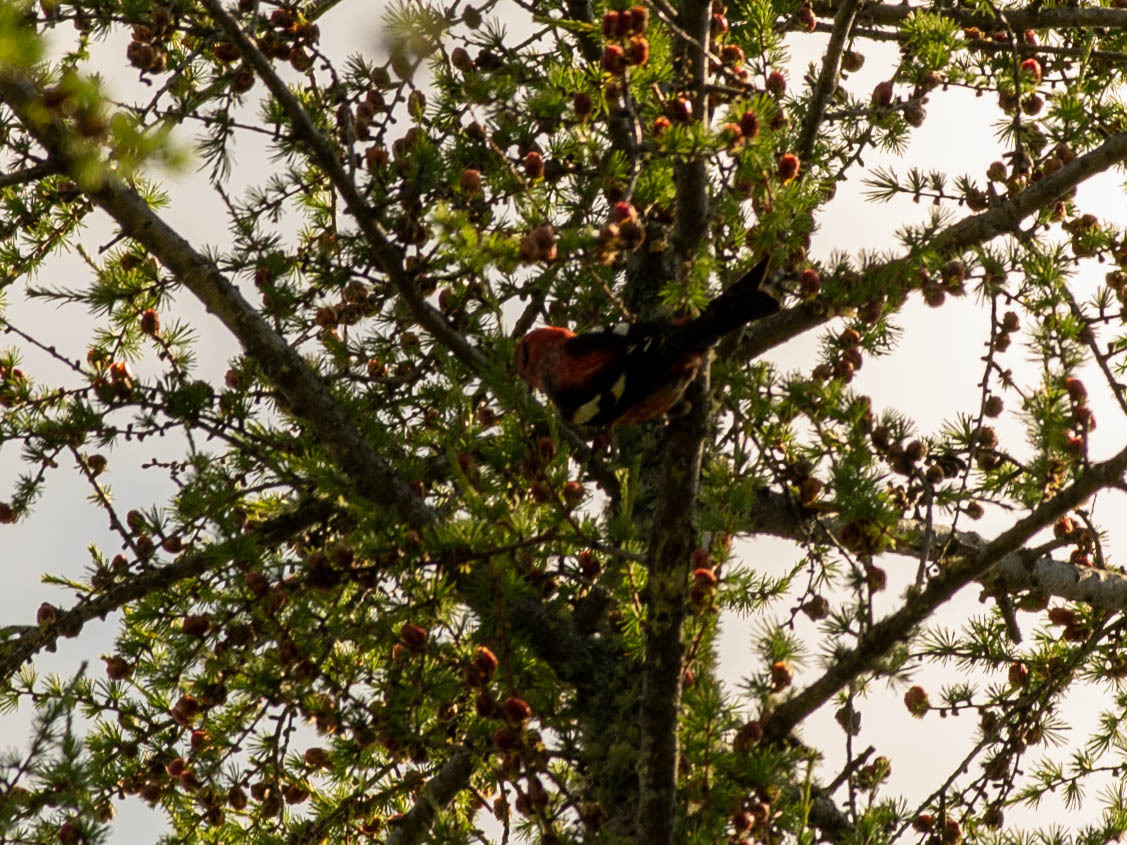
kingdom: Animalia
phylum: Chordata
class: Aves
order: Passeriformes
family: Fringillidae
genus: Loxia
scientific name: Loxia leucoptera
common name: Two-barred crossbill
